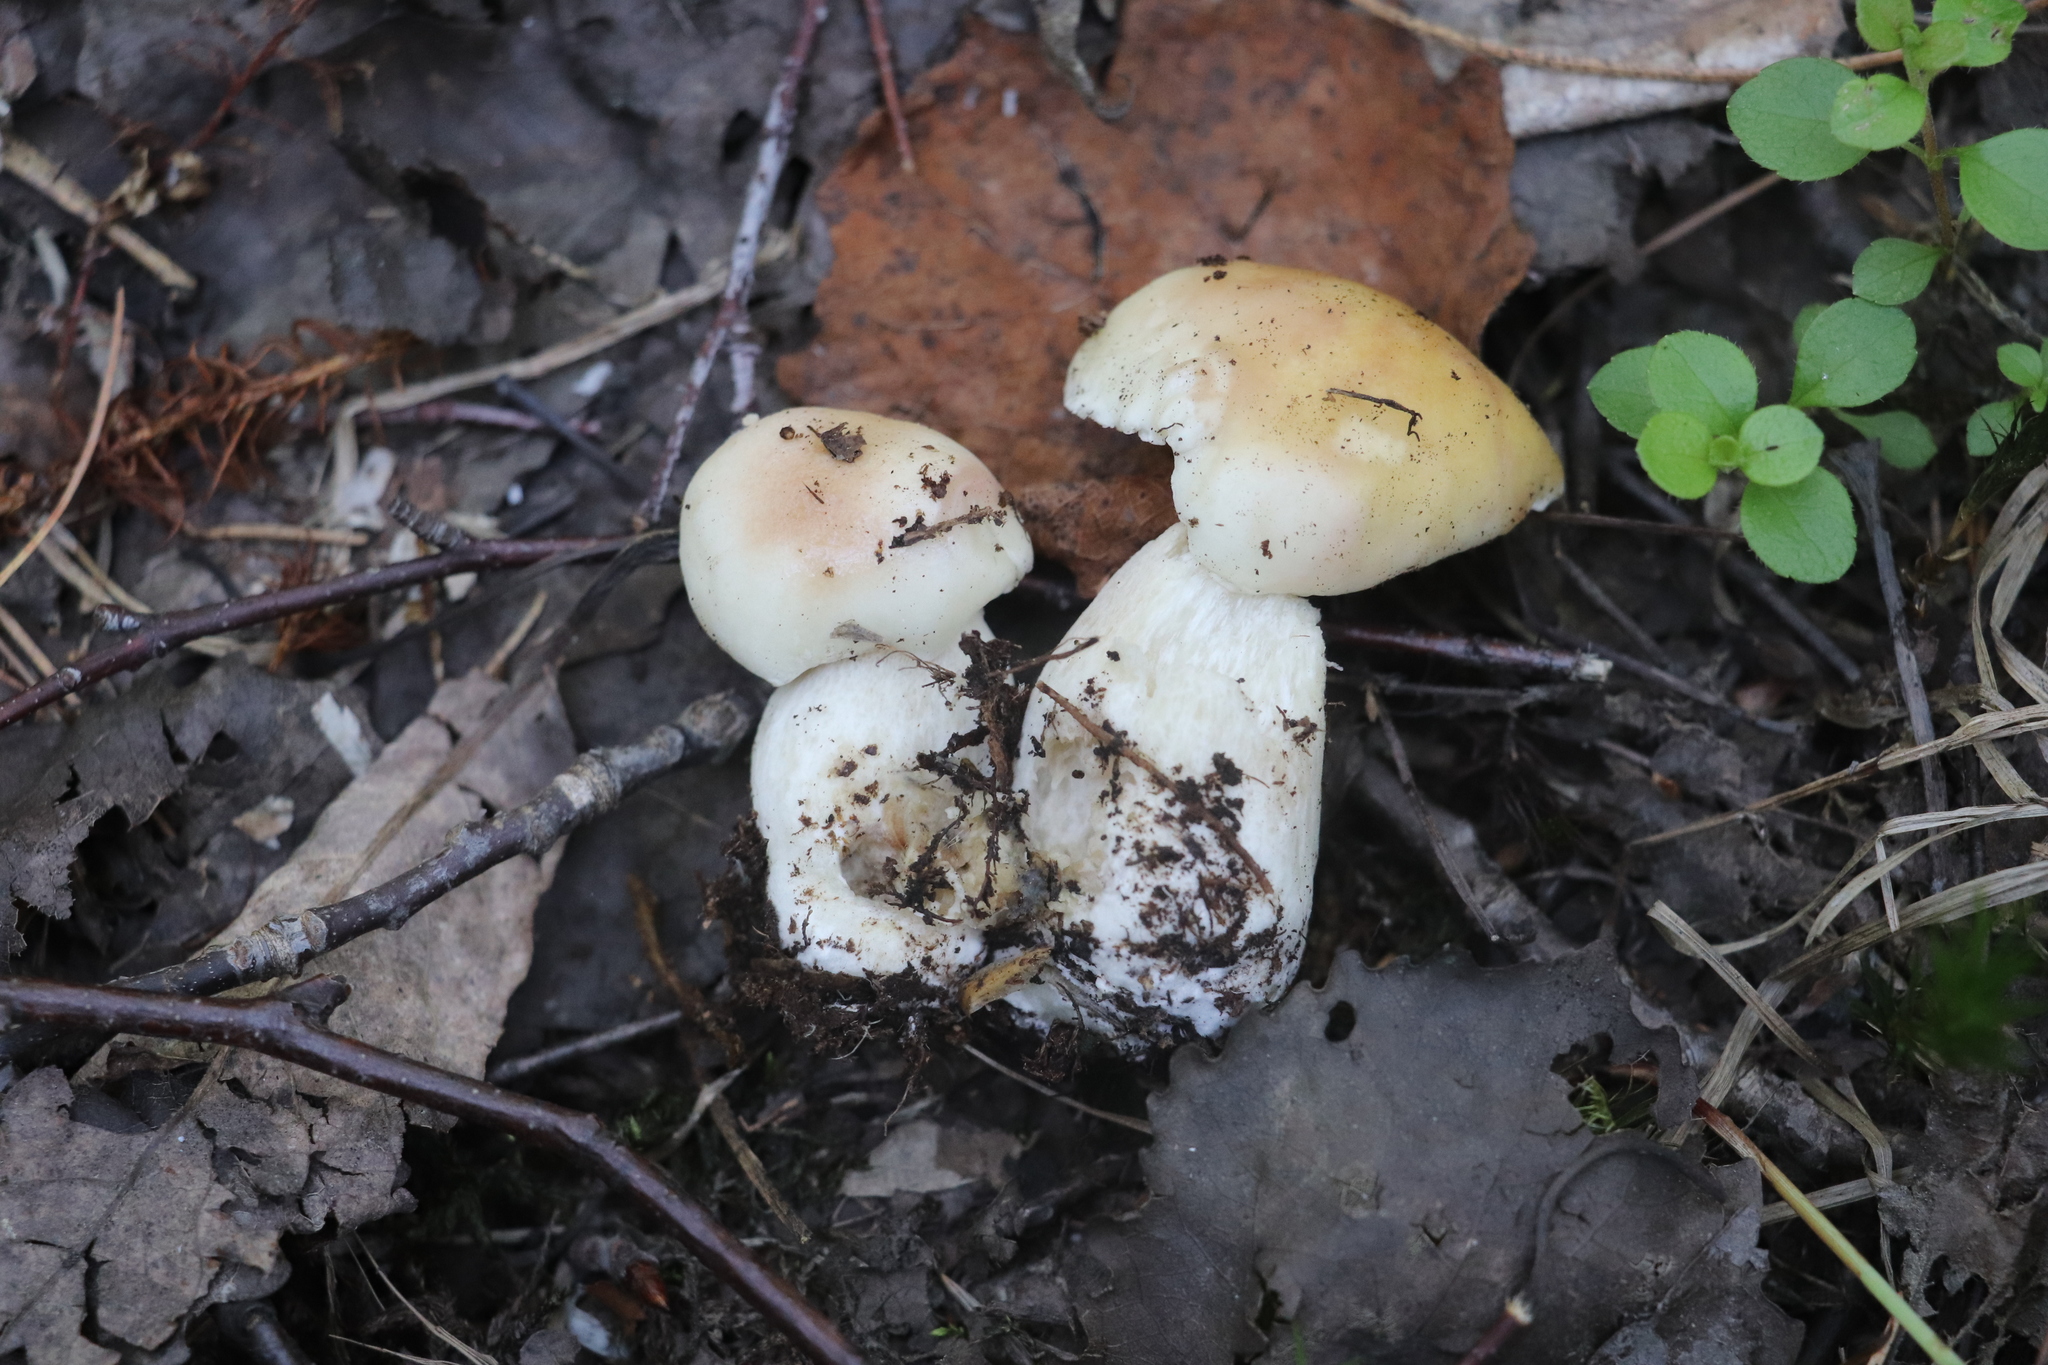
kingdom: Fungi
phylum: Basidiomycota
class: Agaricomycetes
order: Boletales
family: Boletaceae
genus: Boletus
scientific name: Boletus edulis
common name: Cep
